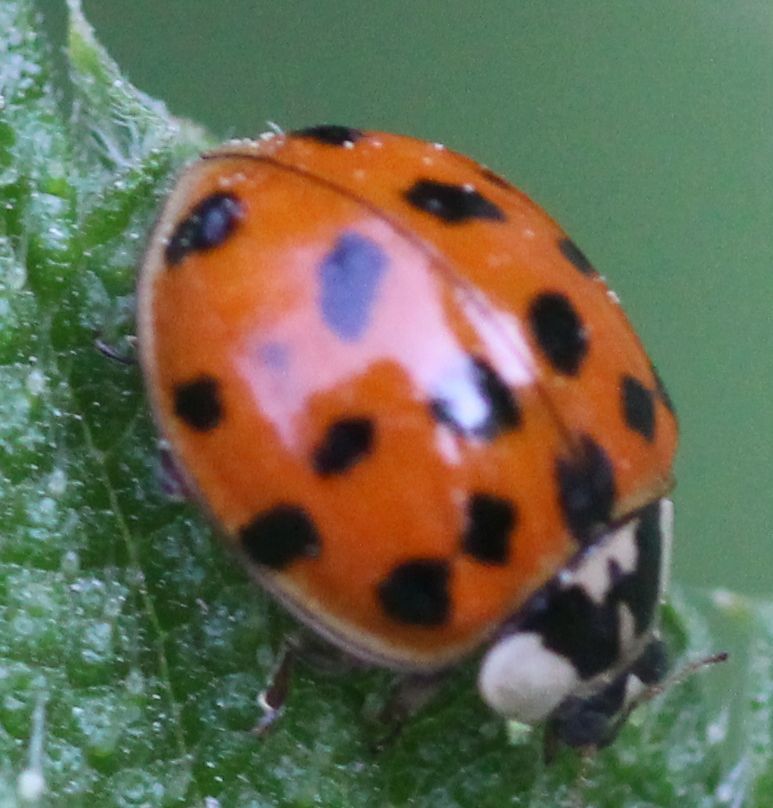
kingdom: Animalia
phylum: Arthropoda
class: Insecta
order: Coleoptera
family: Coccinellidae
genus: Harmonia
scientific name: Harmonia axyridis
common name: Harlequin ladybird
